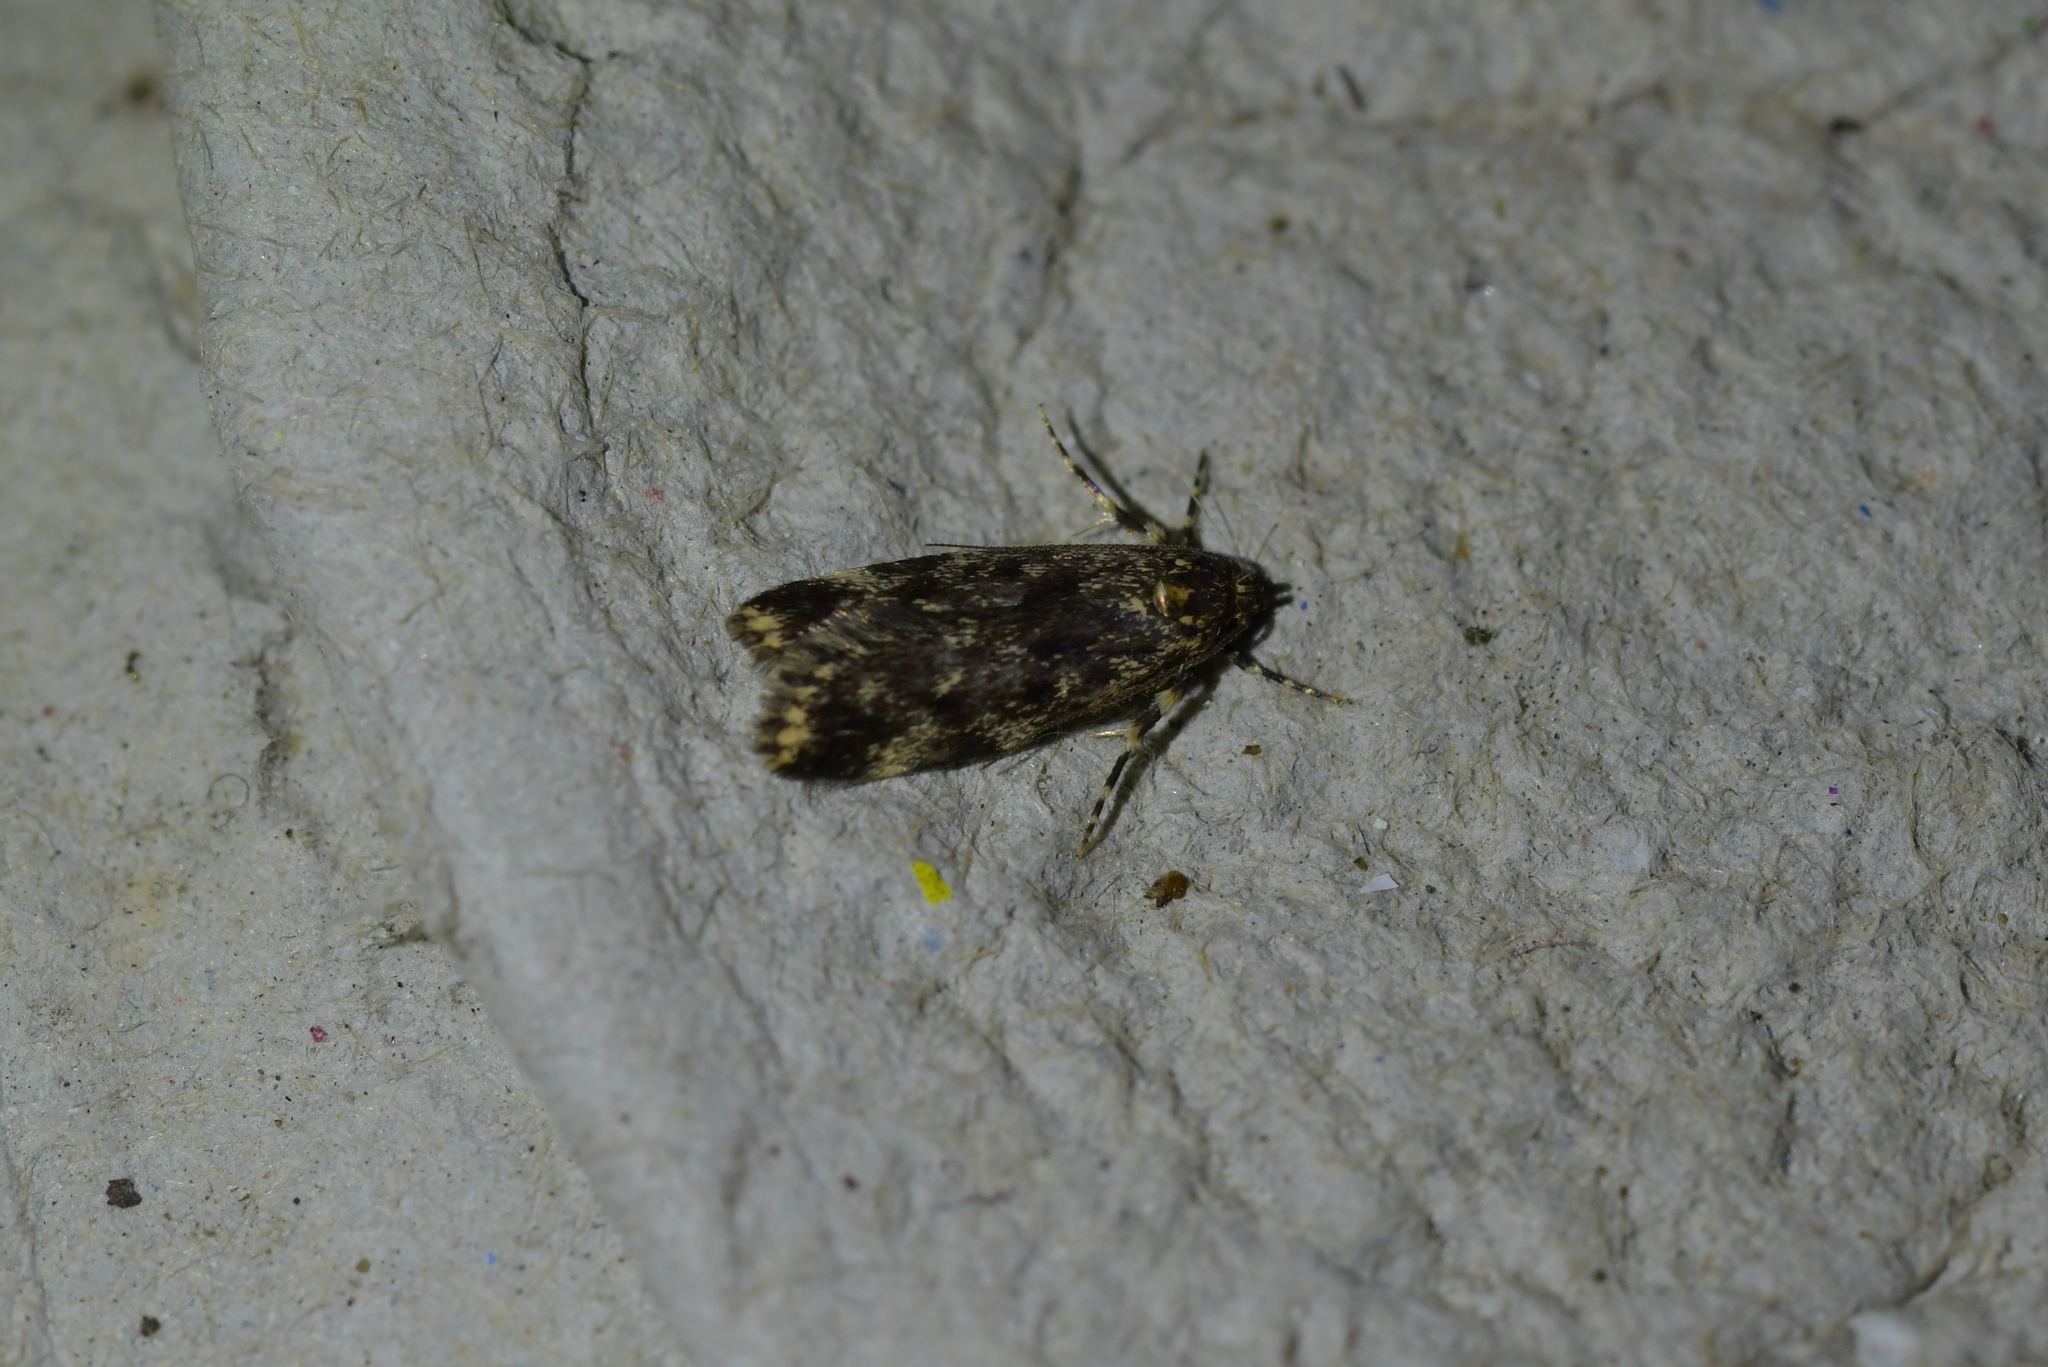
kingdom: Animalia
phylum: Arthropoda
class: Insecta
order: Lepidoptera
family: Oecophoridae
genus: Barea
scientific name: Barea codrella
